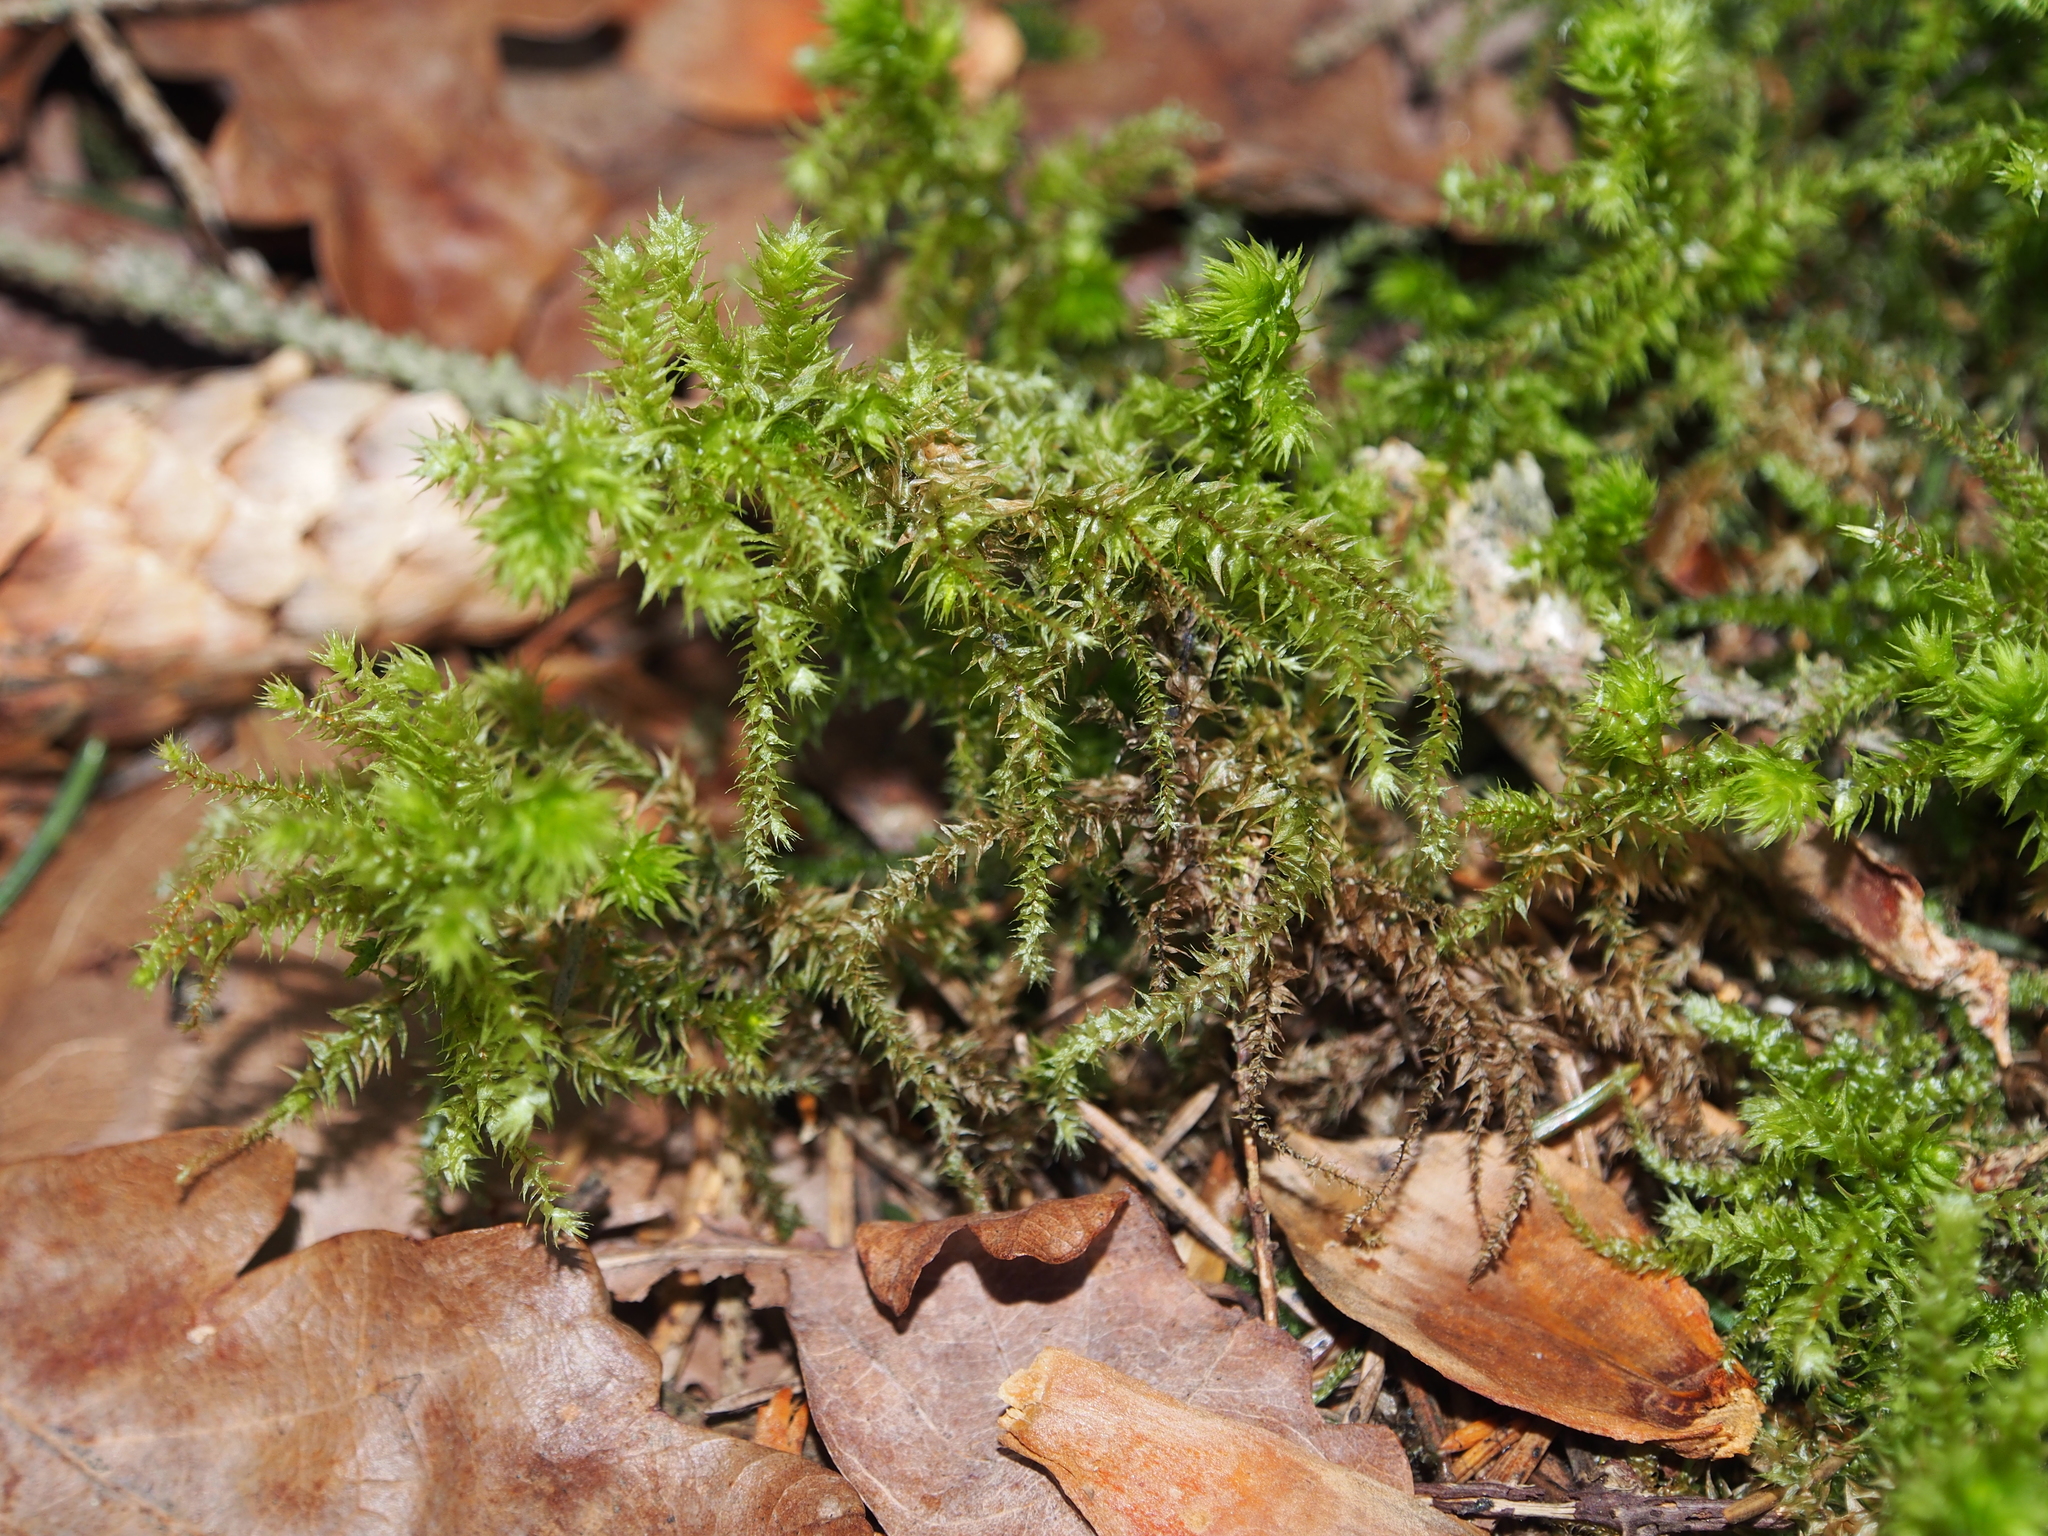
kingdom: Plantae
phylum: Bryophyta
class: Bryopsida
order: Hypnales
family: Hylocomiaceae
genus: Hylocomiadelphus
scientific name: Hylocomiadelphus triquetrus
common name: Rough goose neck moss
